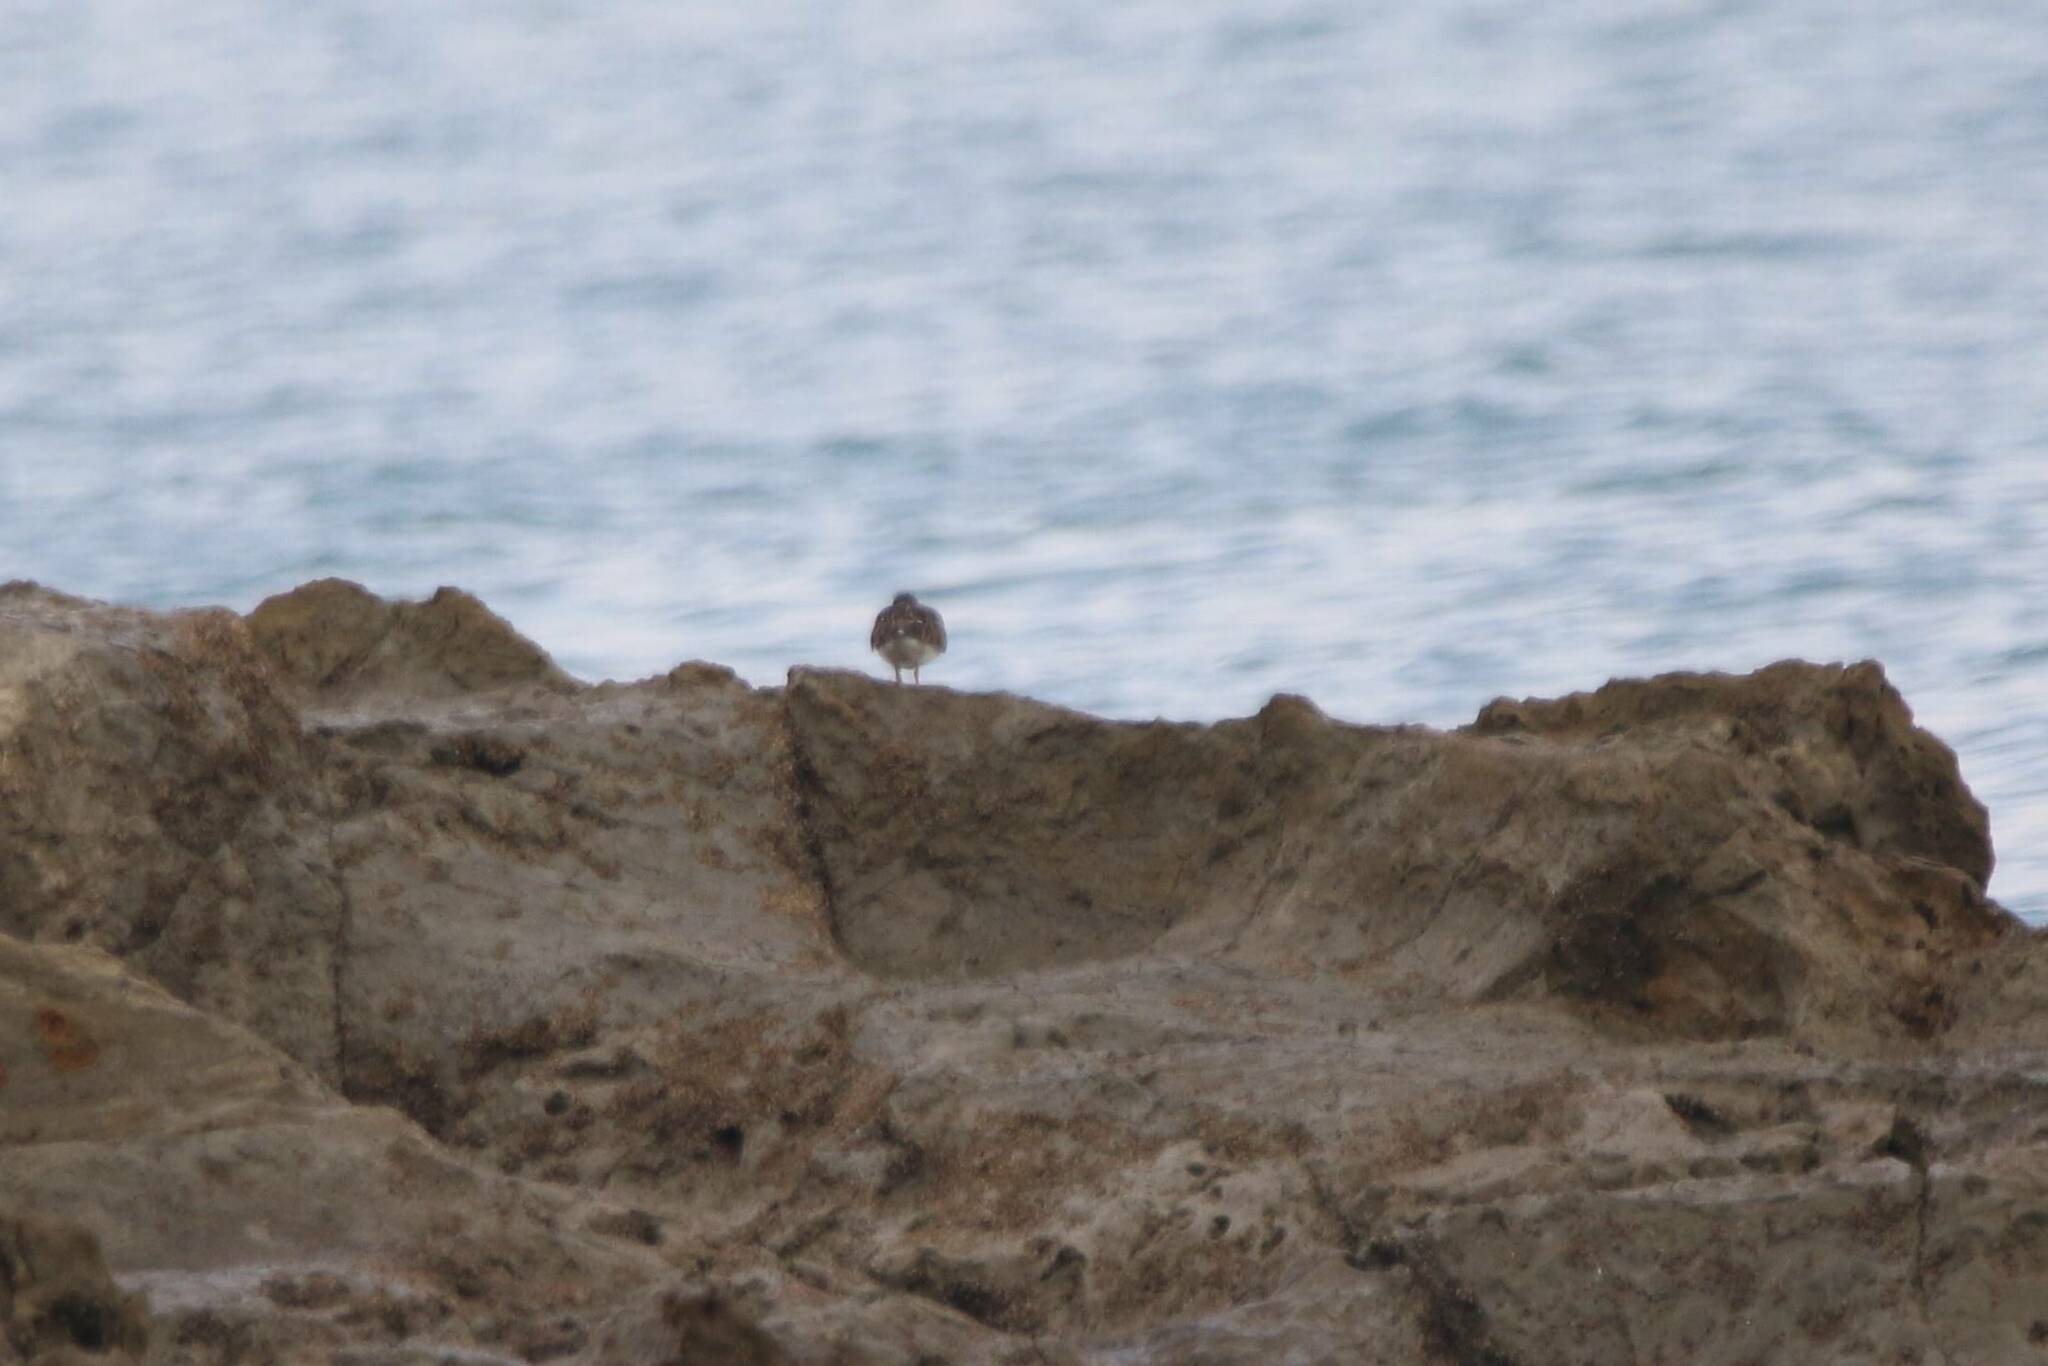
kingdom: Animalia
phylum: Chordata
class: Aves
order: Charadriiformes
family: Scolopacidae
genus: Arenaria
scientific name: Arenaria interpres
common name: Ruddy turnstone
